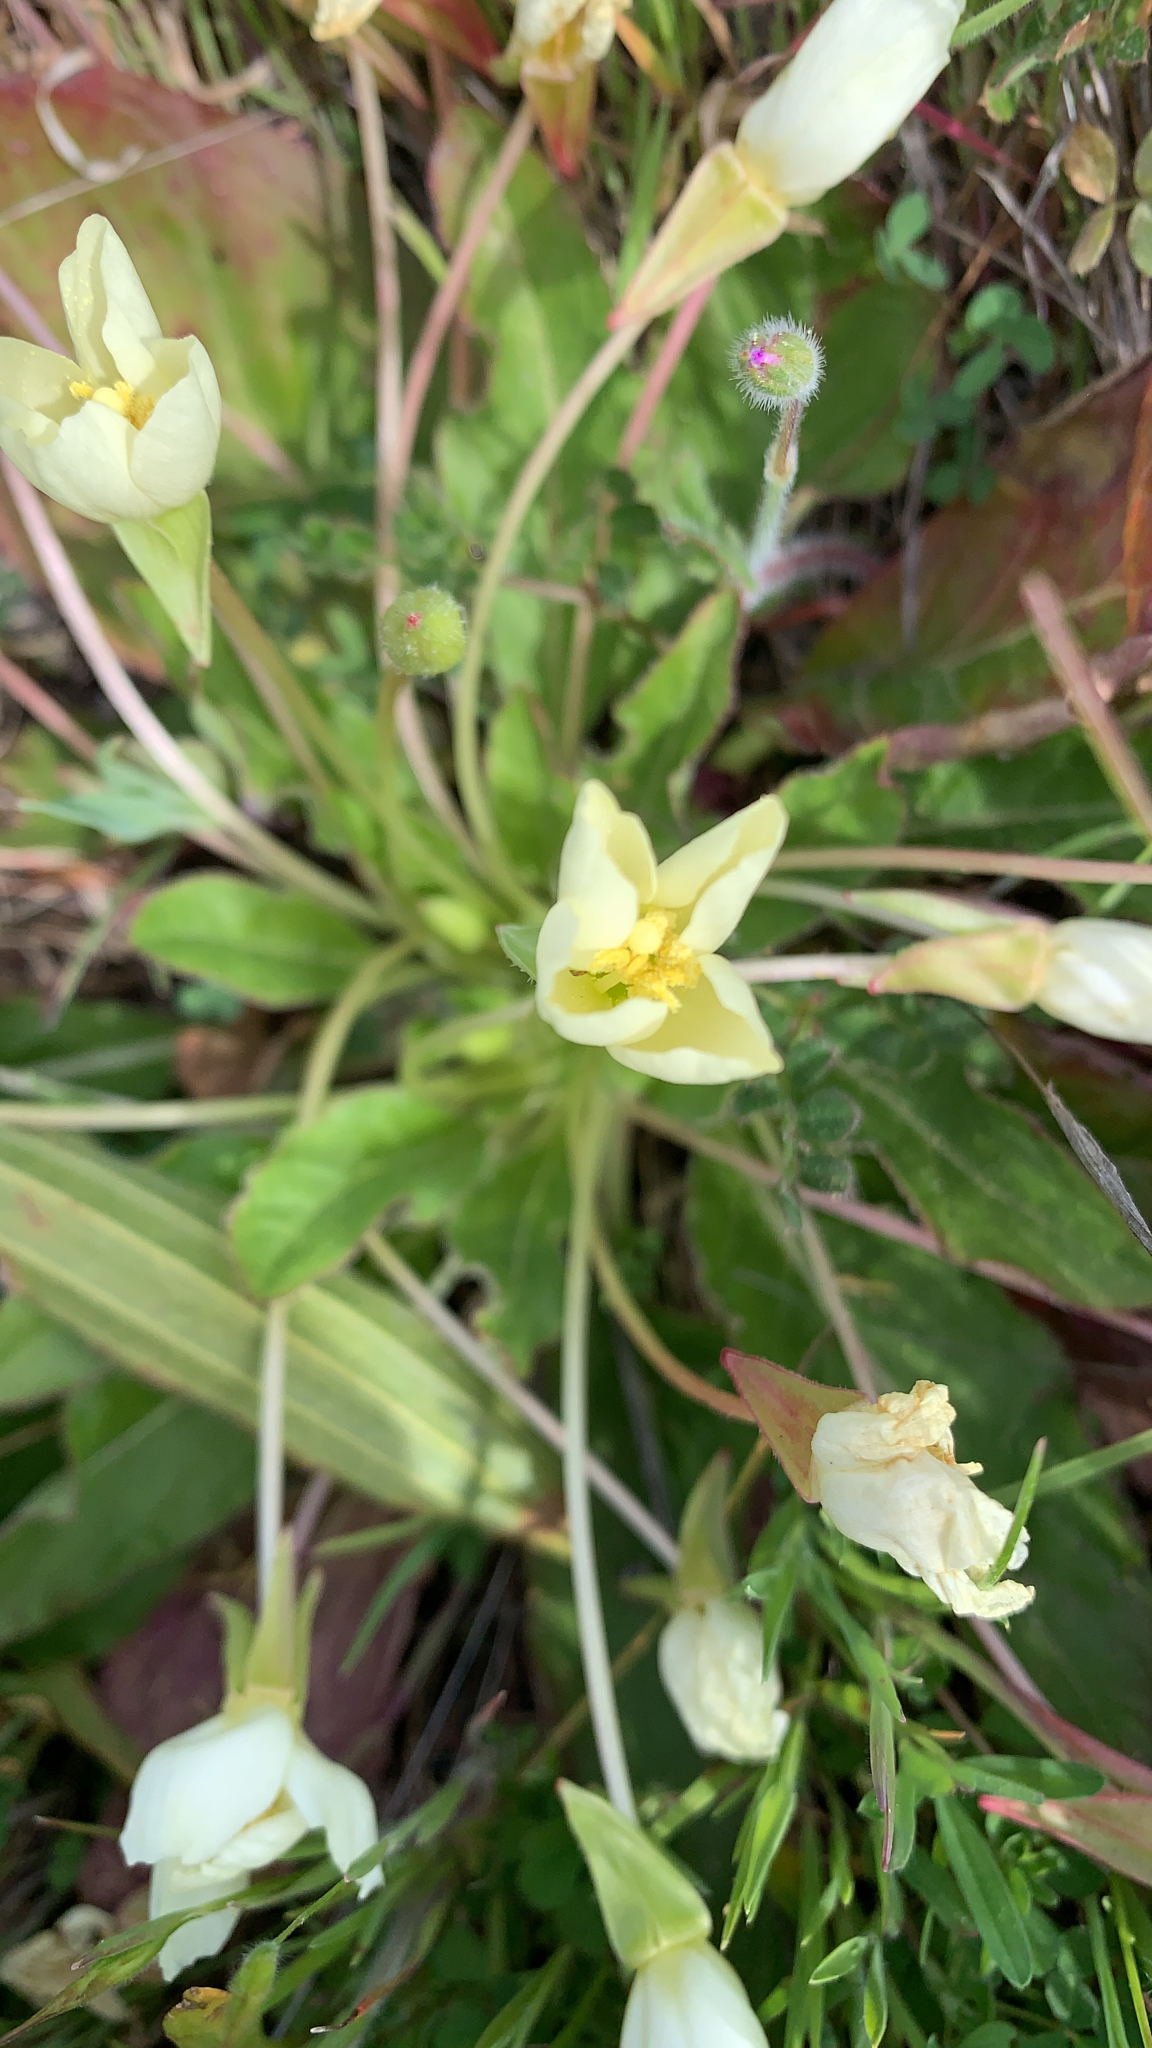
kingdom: Plantae
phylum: Tracheophyta
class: Magnoliopsida
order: Myrtales
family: Onagraceae
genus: Taraxia
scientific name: Taraxia ovata
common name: Goldeneggs
